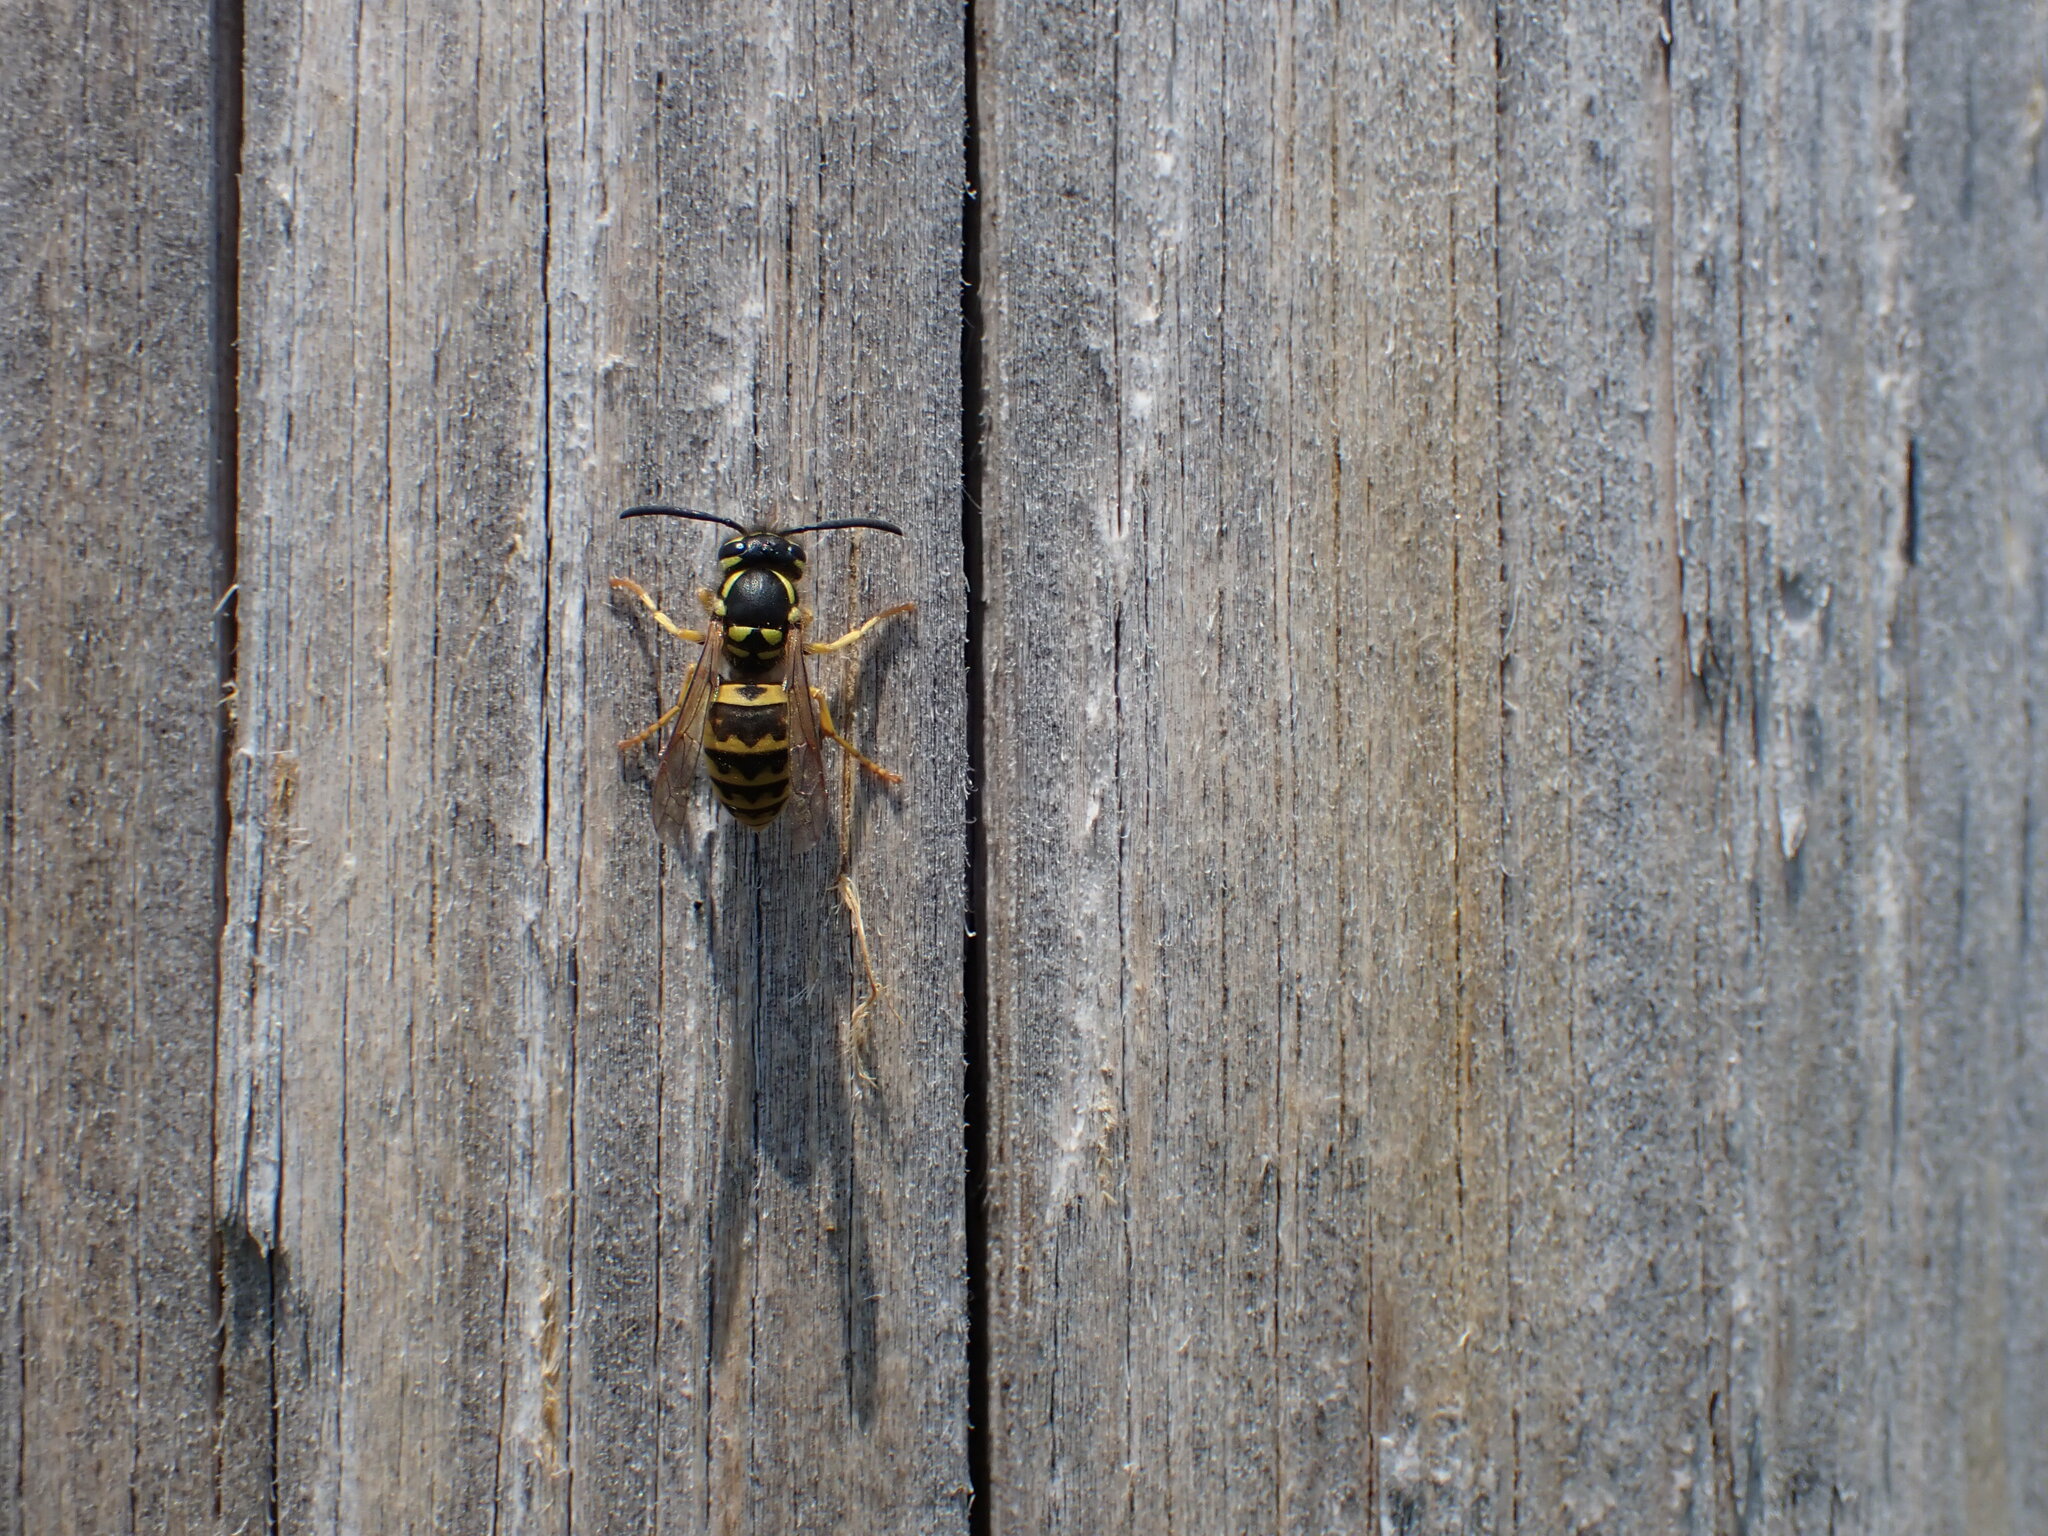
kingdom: Animalia
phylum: Arthropoda
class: Insecta
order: Hymenoptera
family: Vespidae
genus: Vespula
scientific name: Vespula germanica
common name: German wasp
